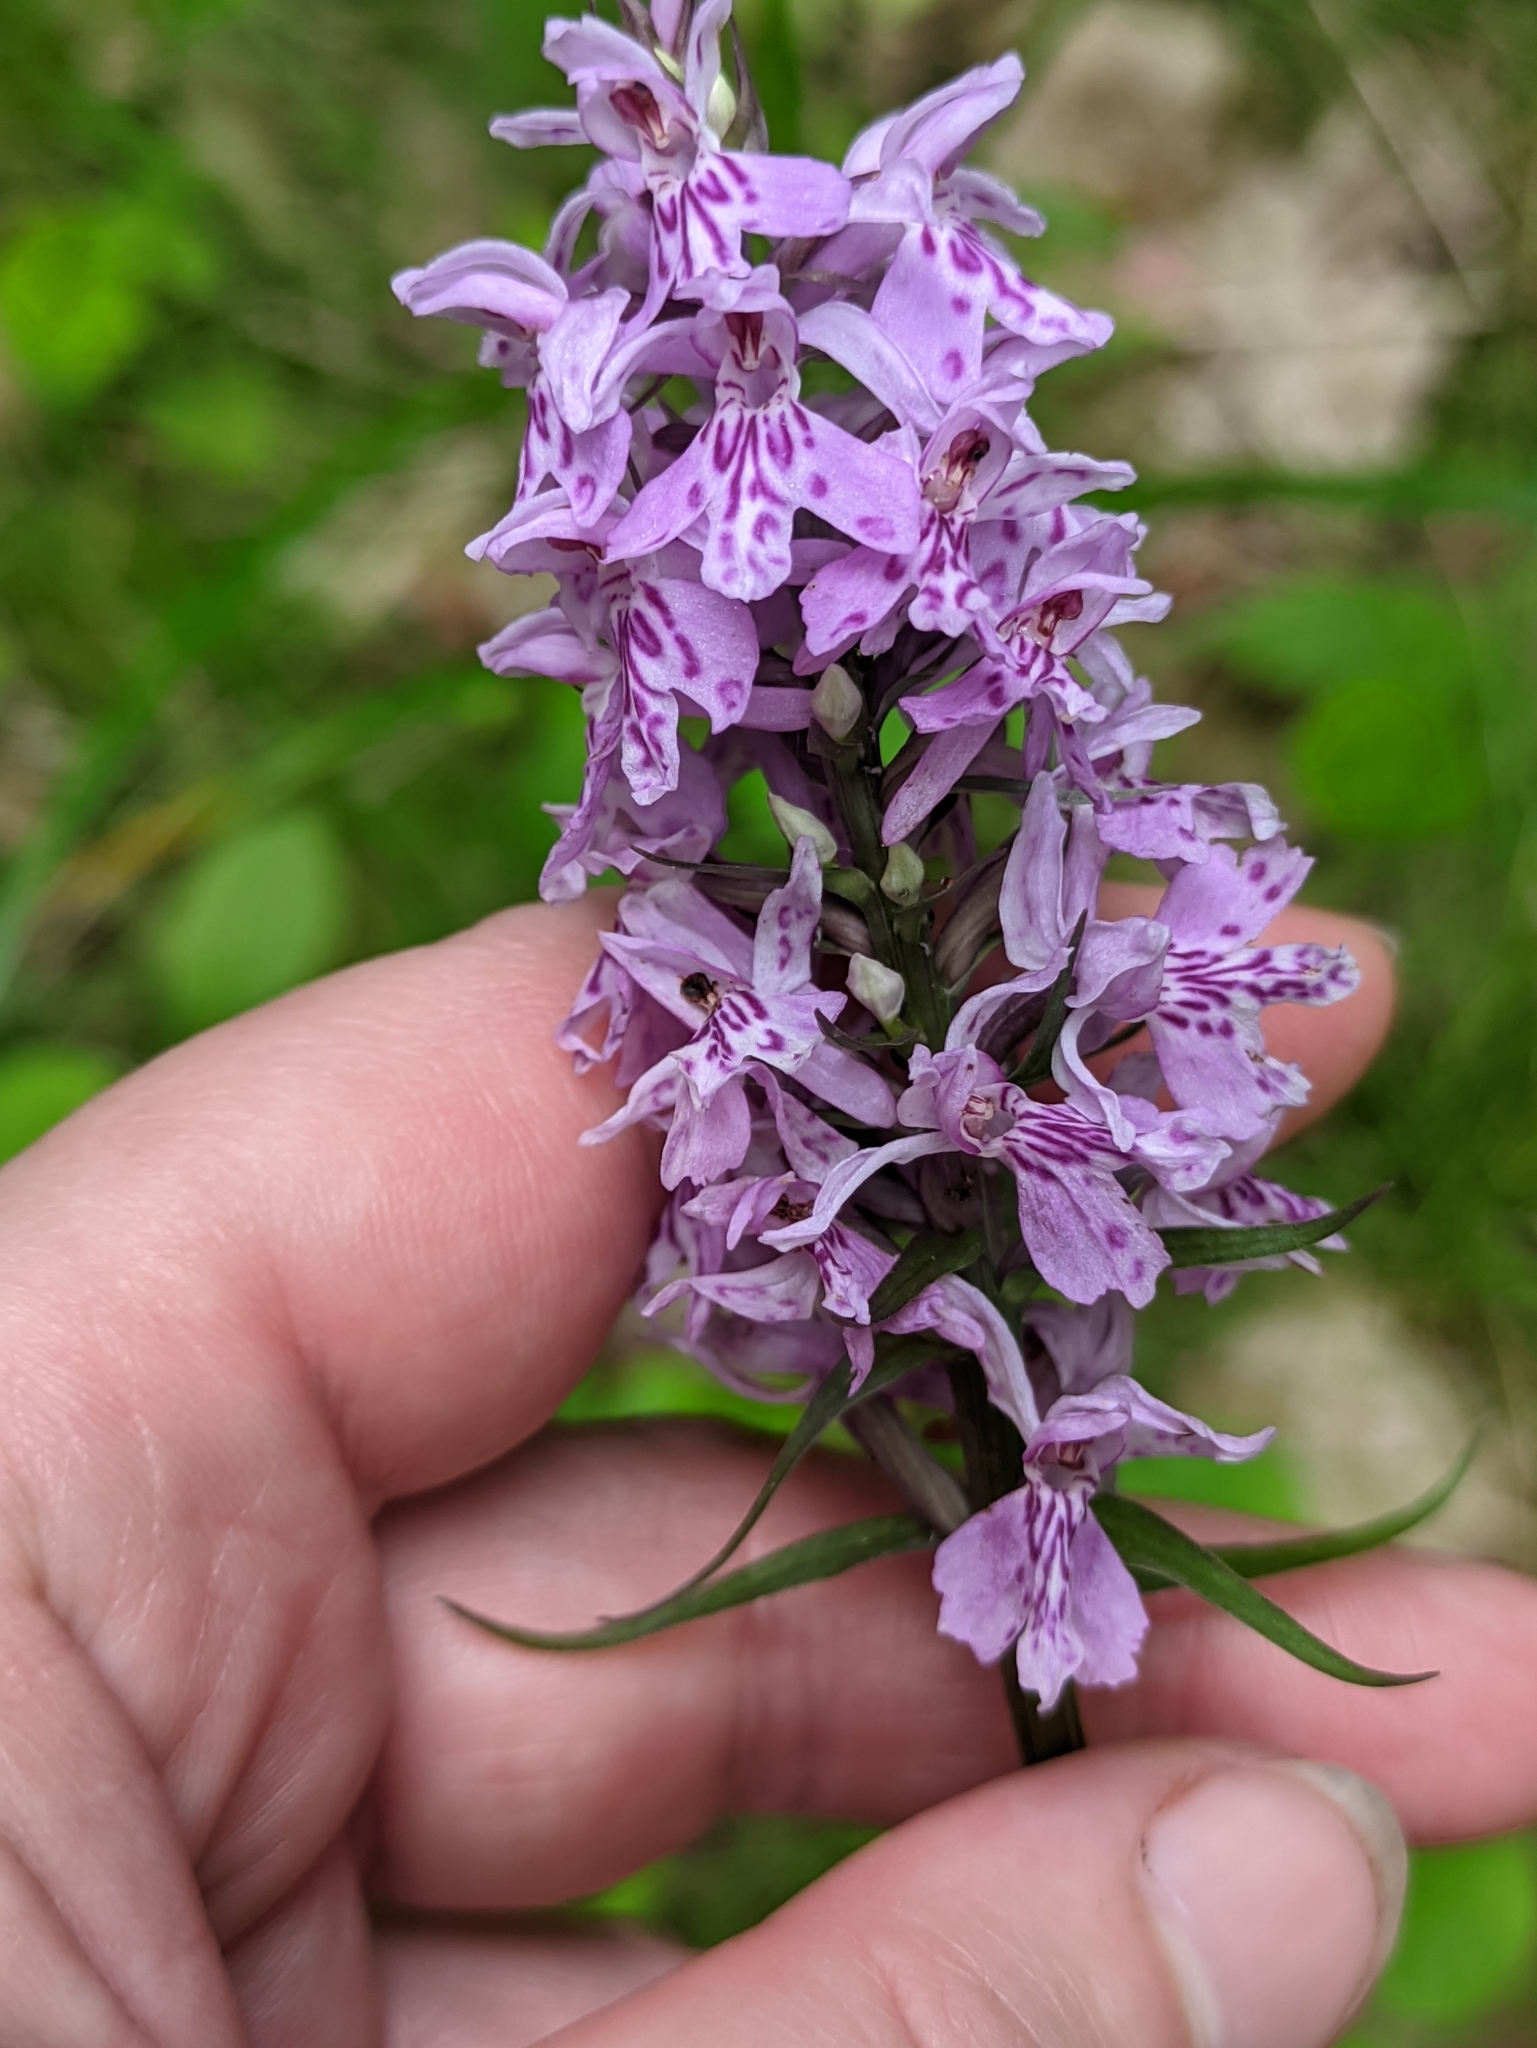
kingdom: Plantae
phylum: Tracheophyta
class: Liliopsida
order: Asparagales
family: Orchidaceae
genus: Dactylorhiza
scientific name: Dactylorhiza maculata
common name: Heath spotted-orchid
